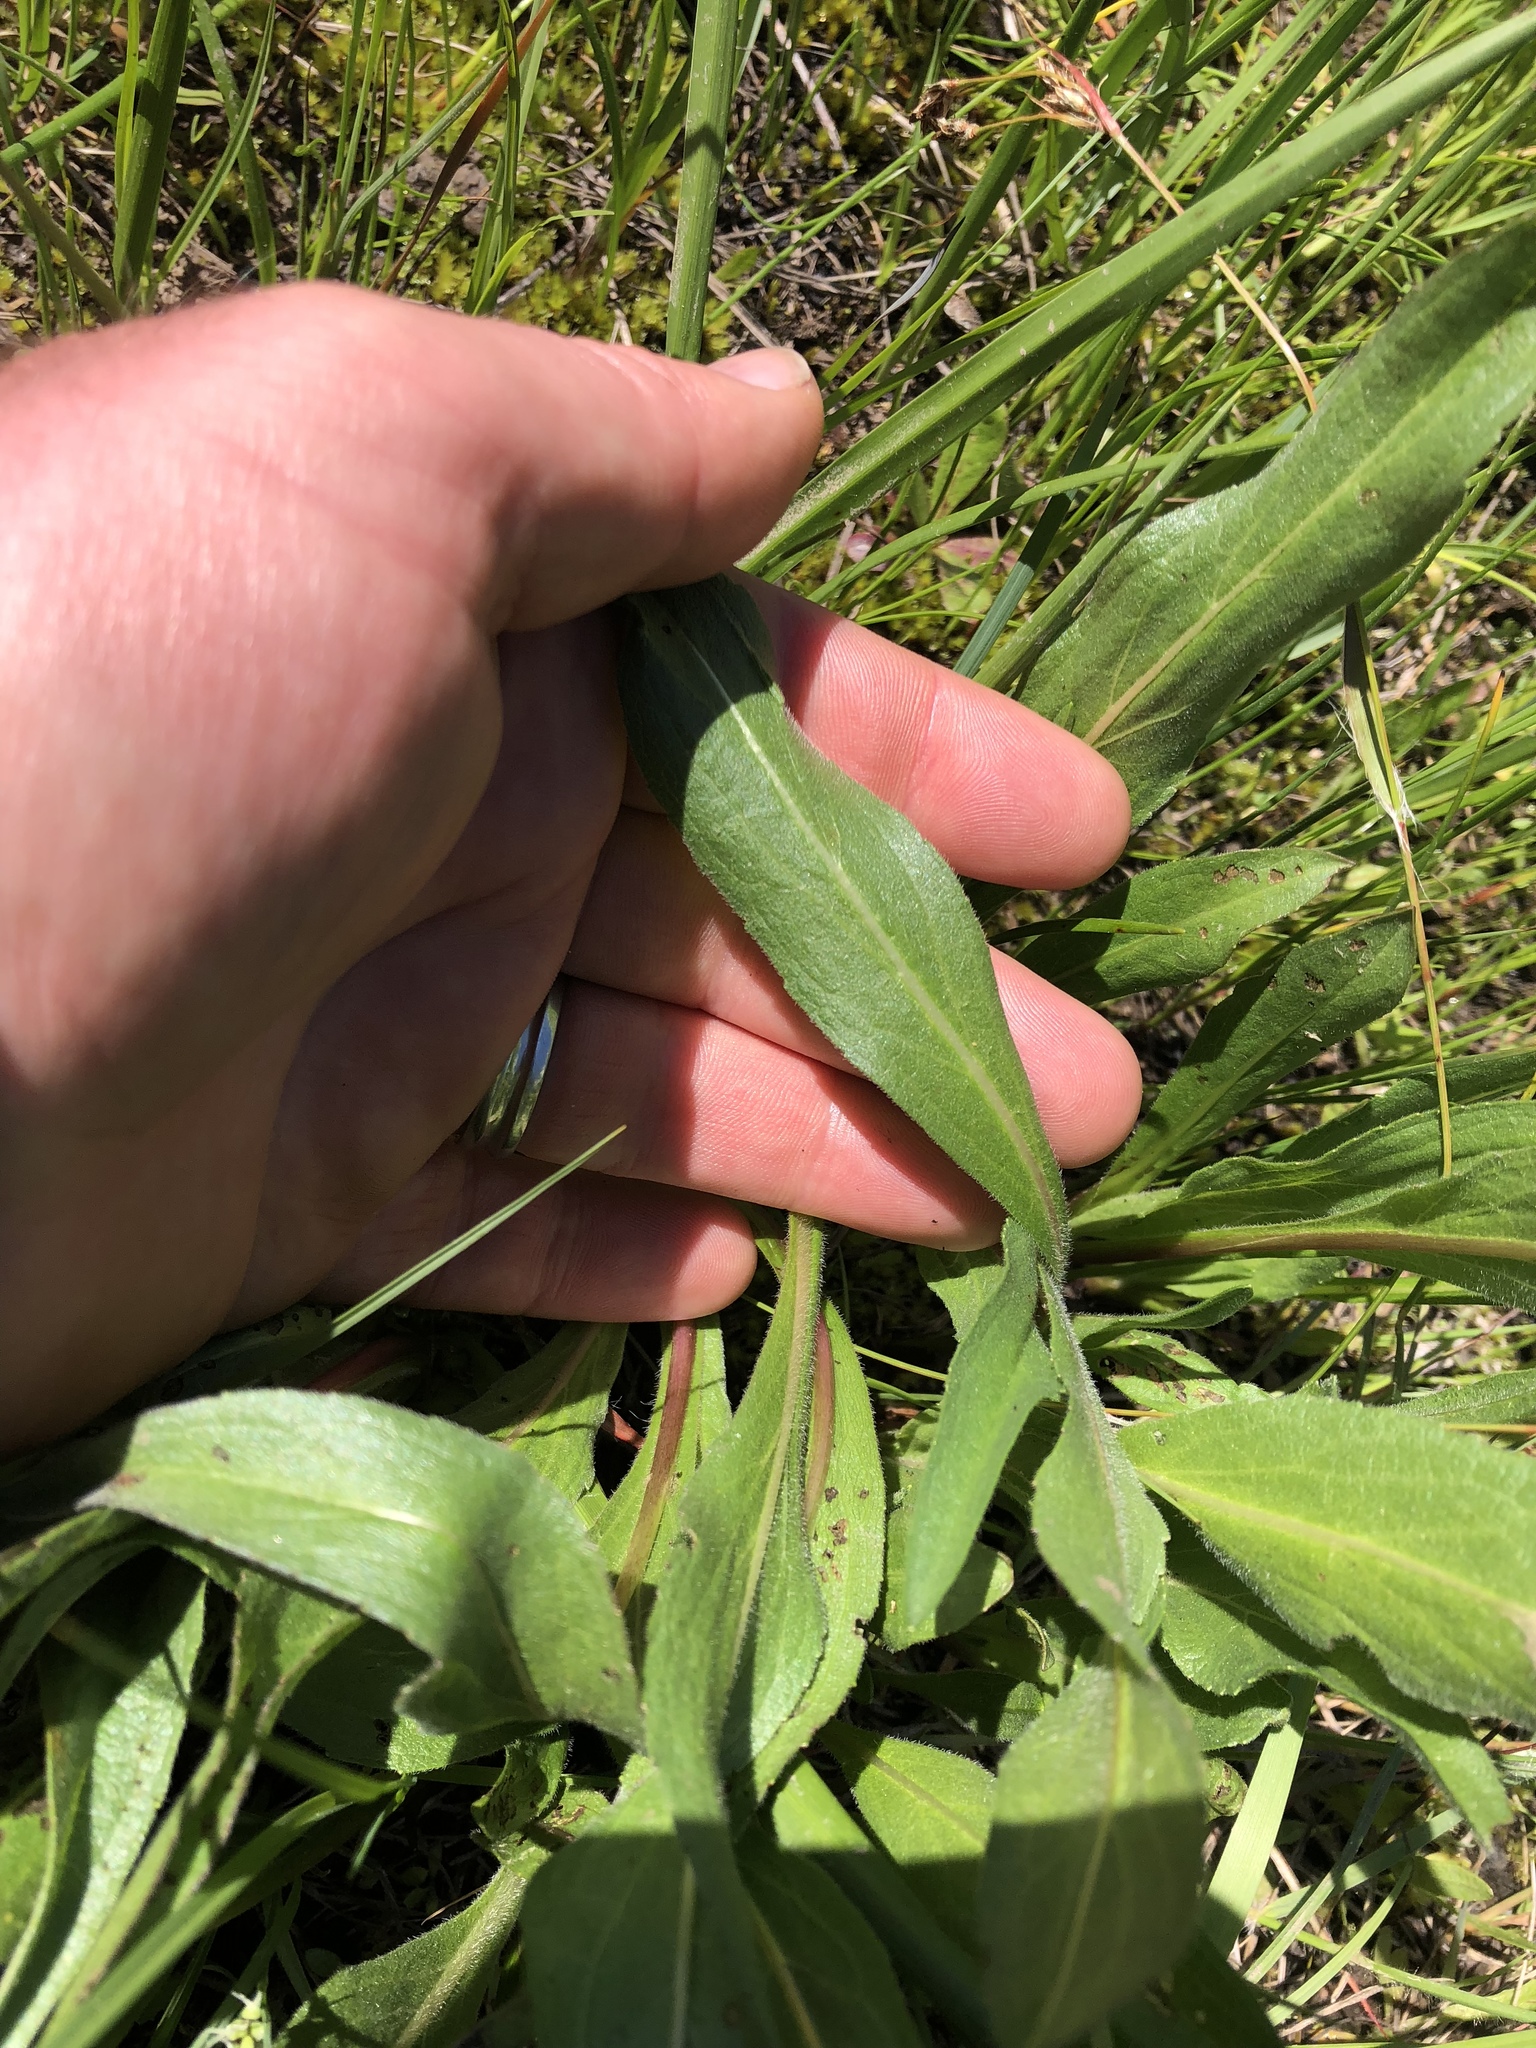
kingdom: Plantae
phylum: Tracheophyta
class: Magnoliopsida
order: Asterales
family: Asteraceae
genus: Wyethia
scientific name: Wyethia angustifolia
